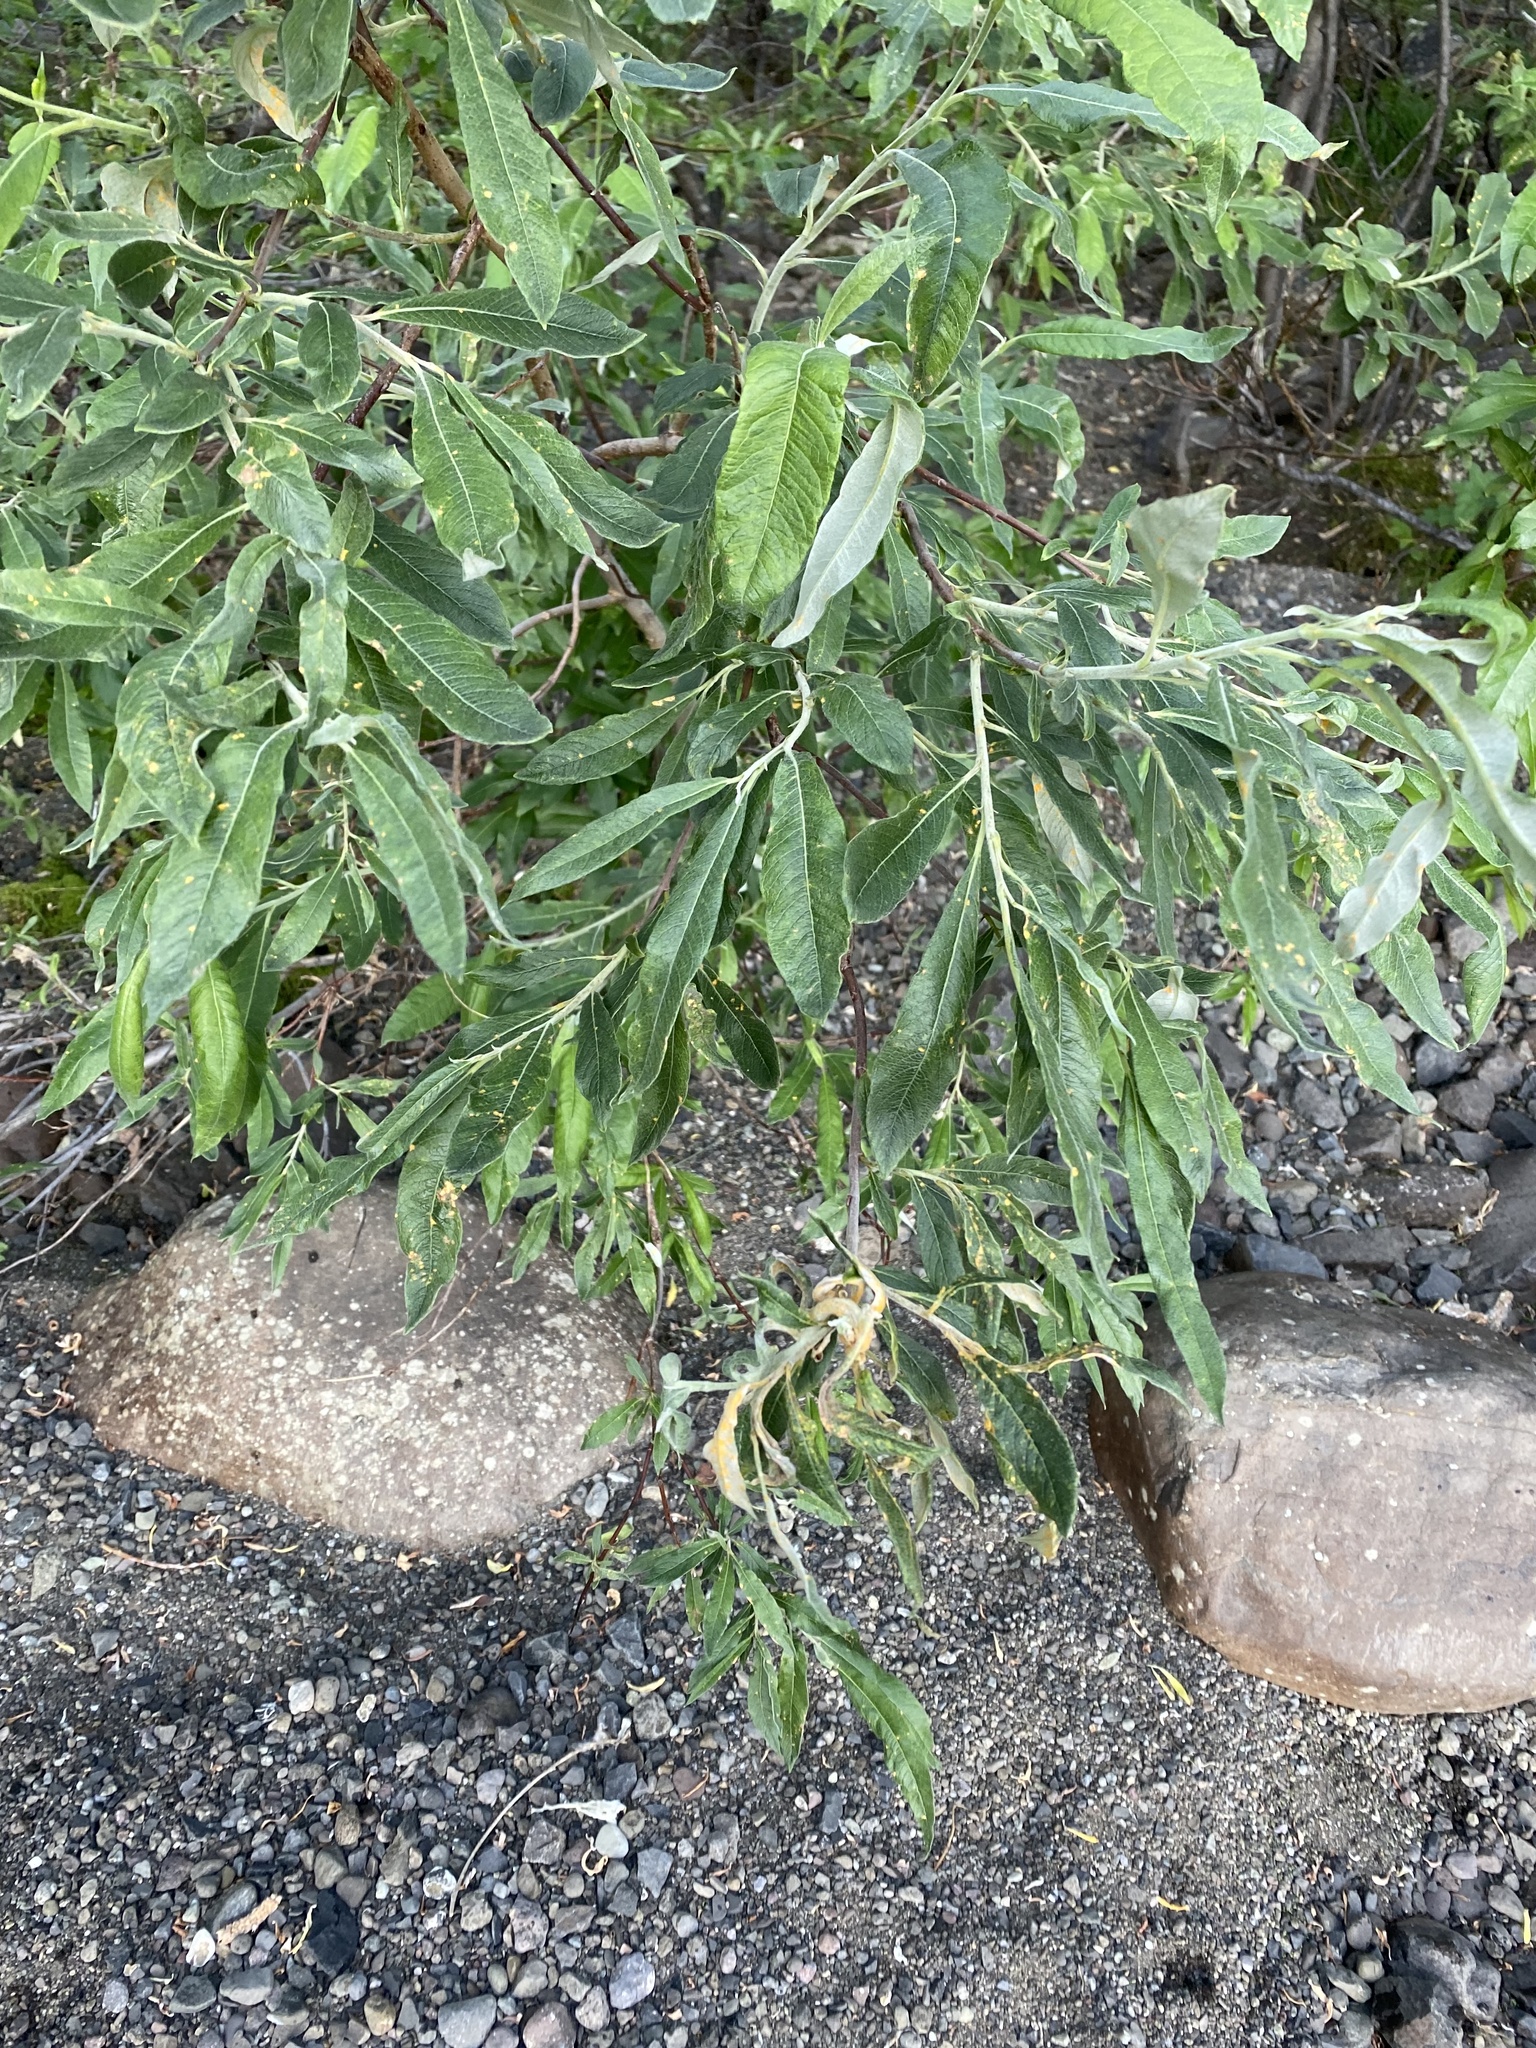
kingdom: Plantae
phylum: Tracheophyta
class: Magnoliopsida
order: Malpighiales
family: Salicaceae
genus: Salix
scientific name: Salix jenisseensis
